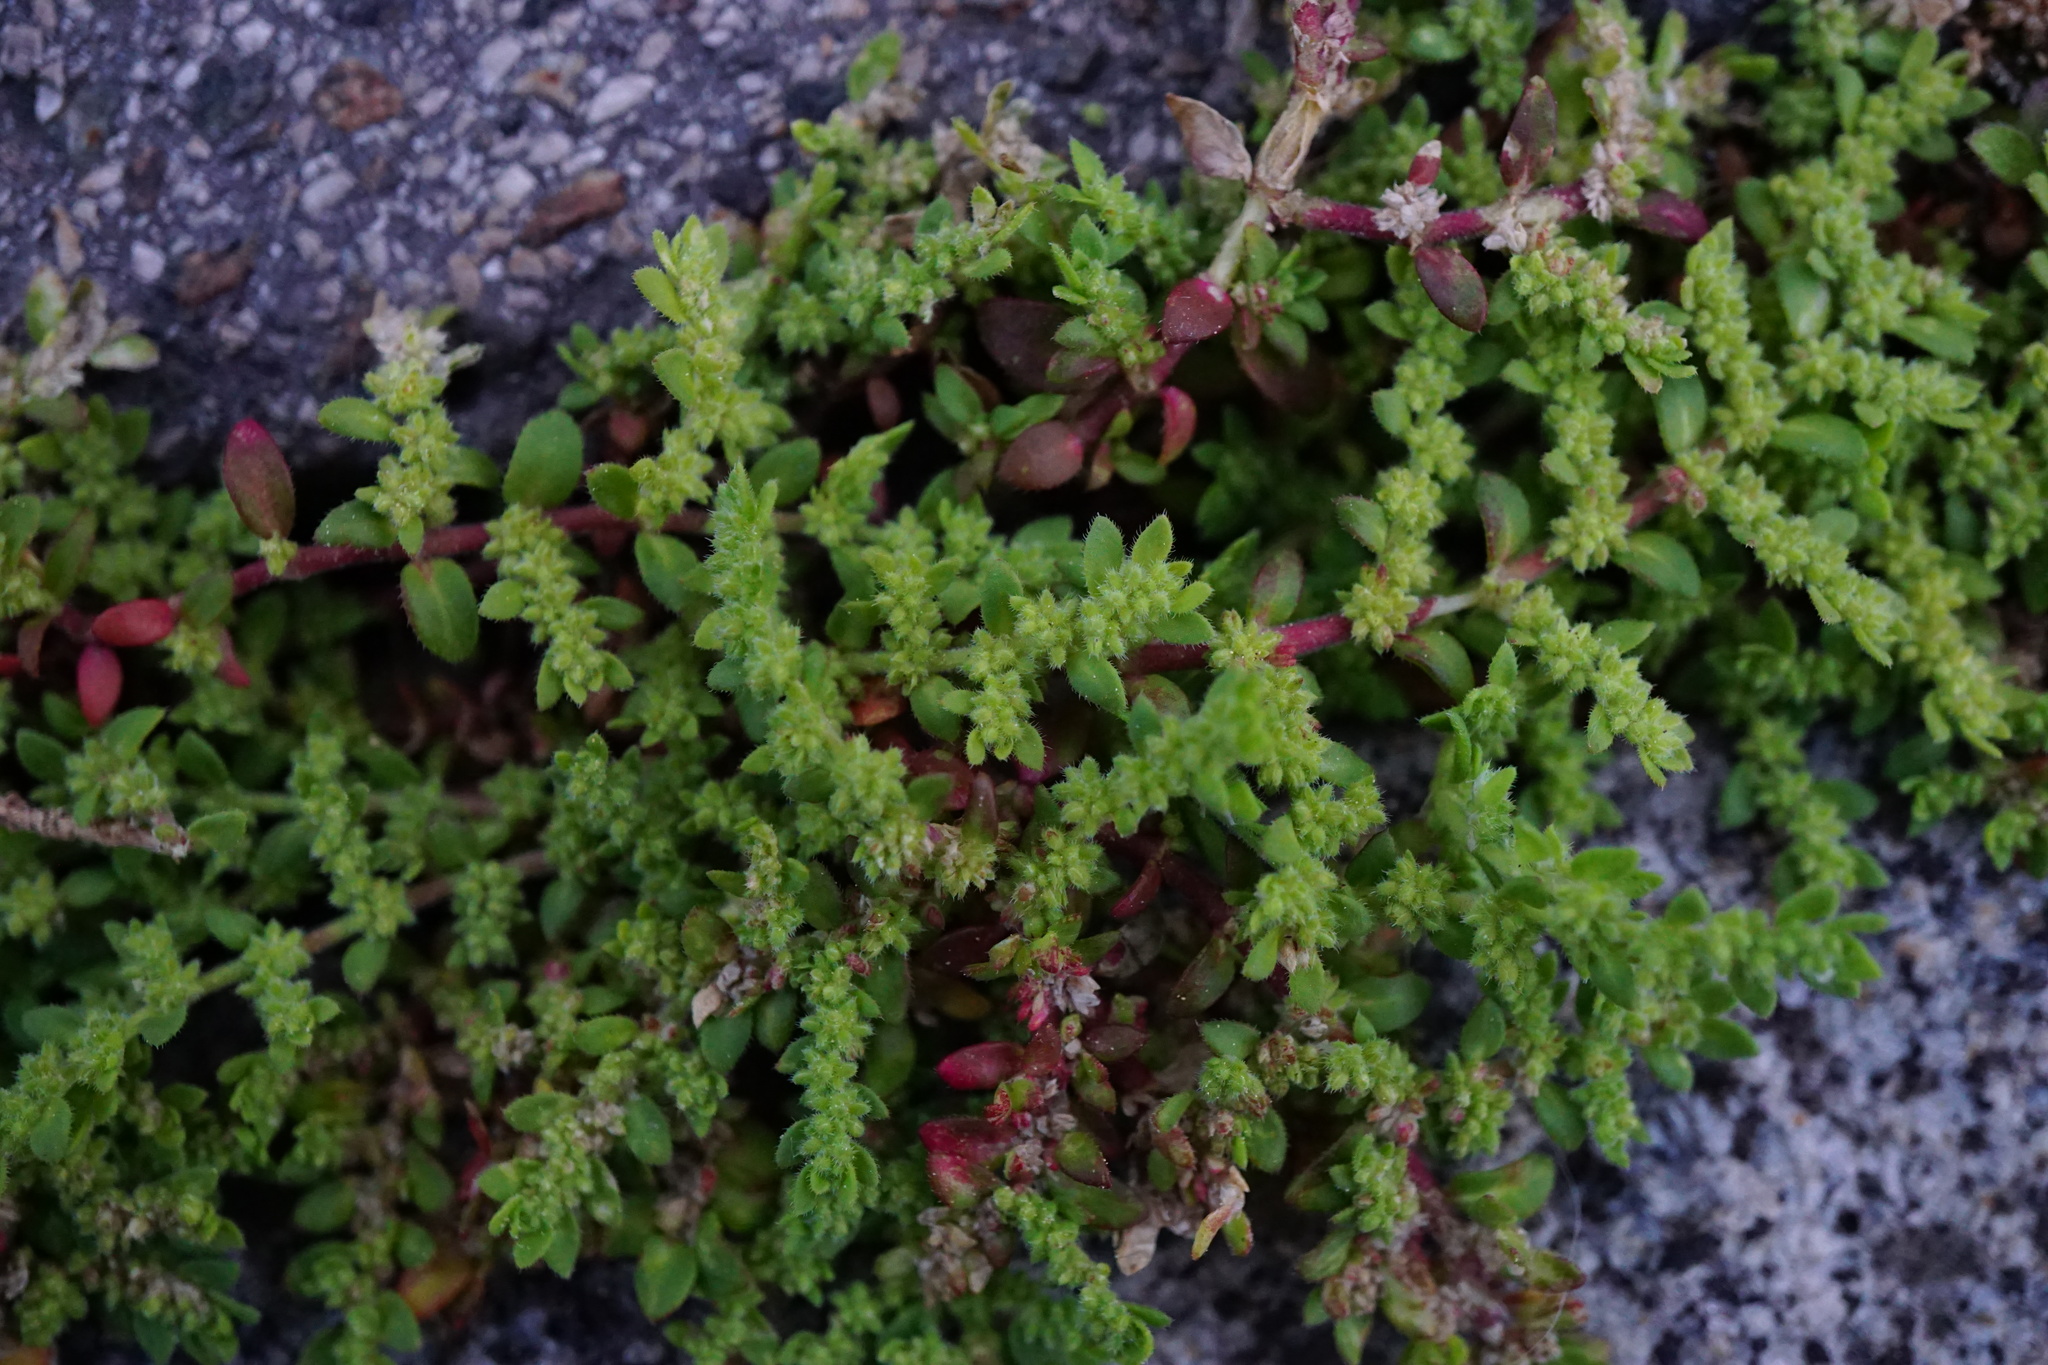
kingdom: Plantae
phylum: Tracheophyta
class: Magnoliopsida
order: Caryophyllales
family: Caryophyllaceae
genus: Herniaria
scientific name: Herniaria hirsuta
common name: Hairy rupturewort
